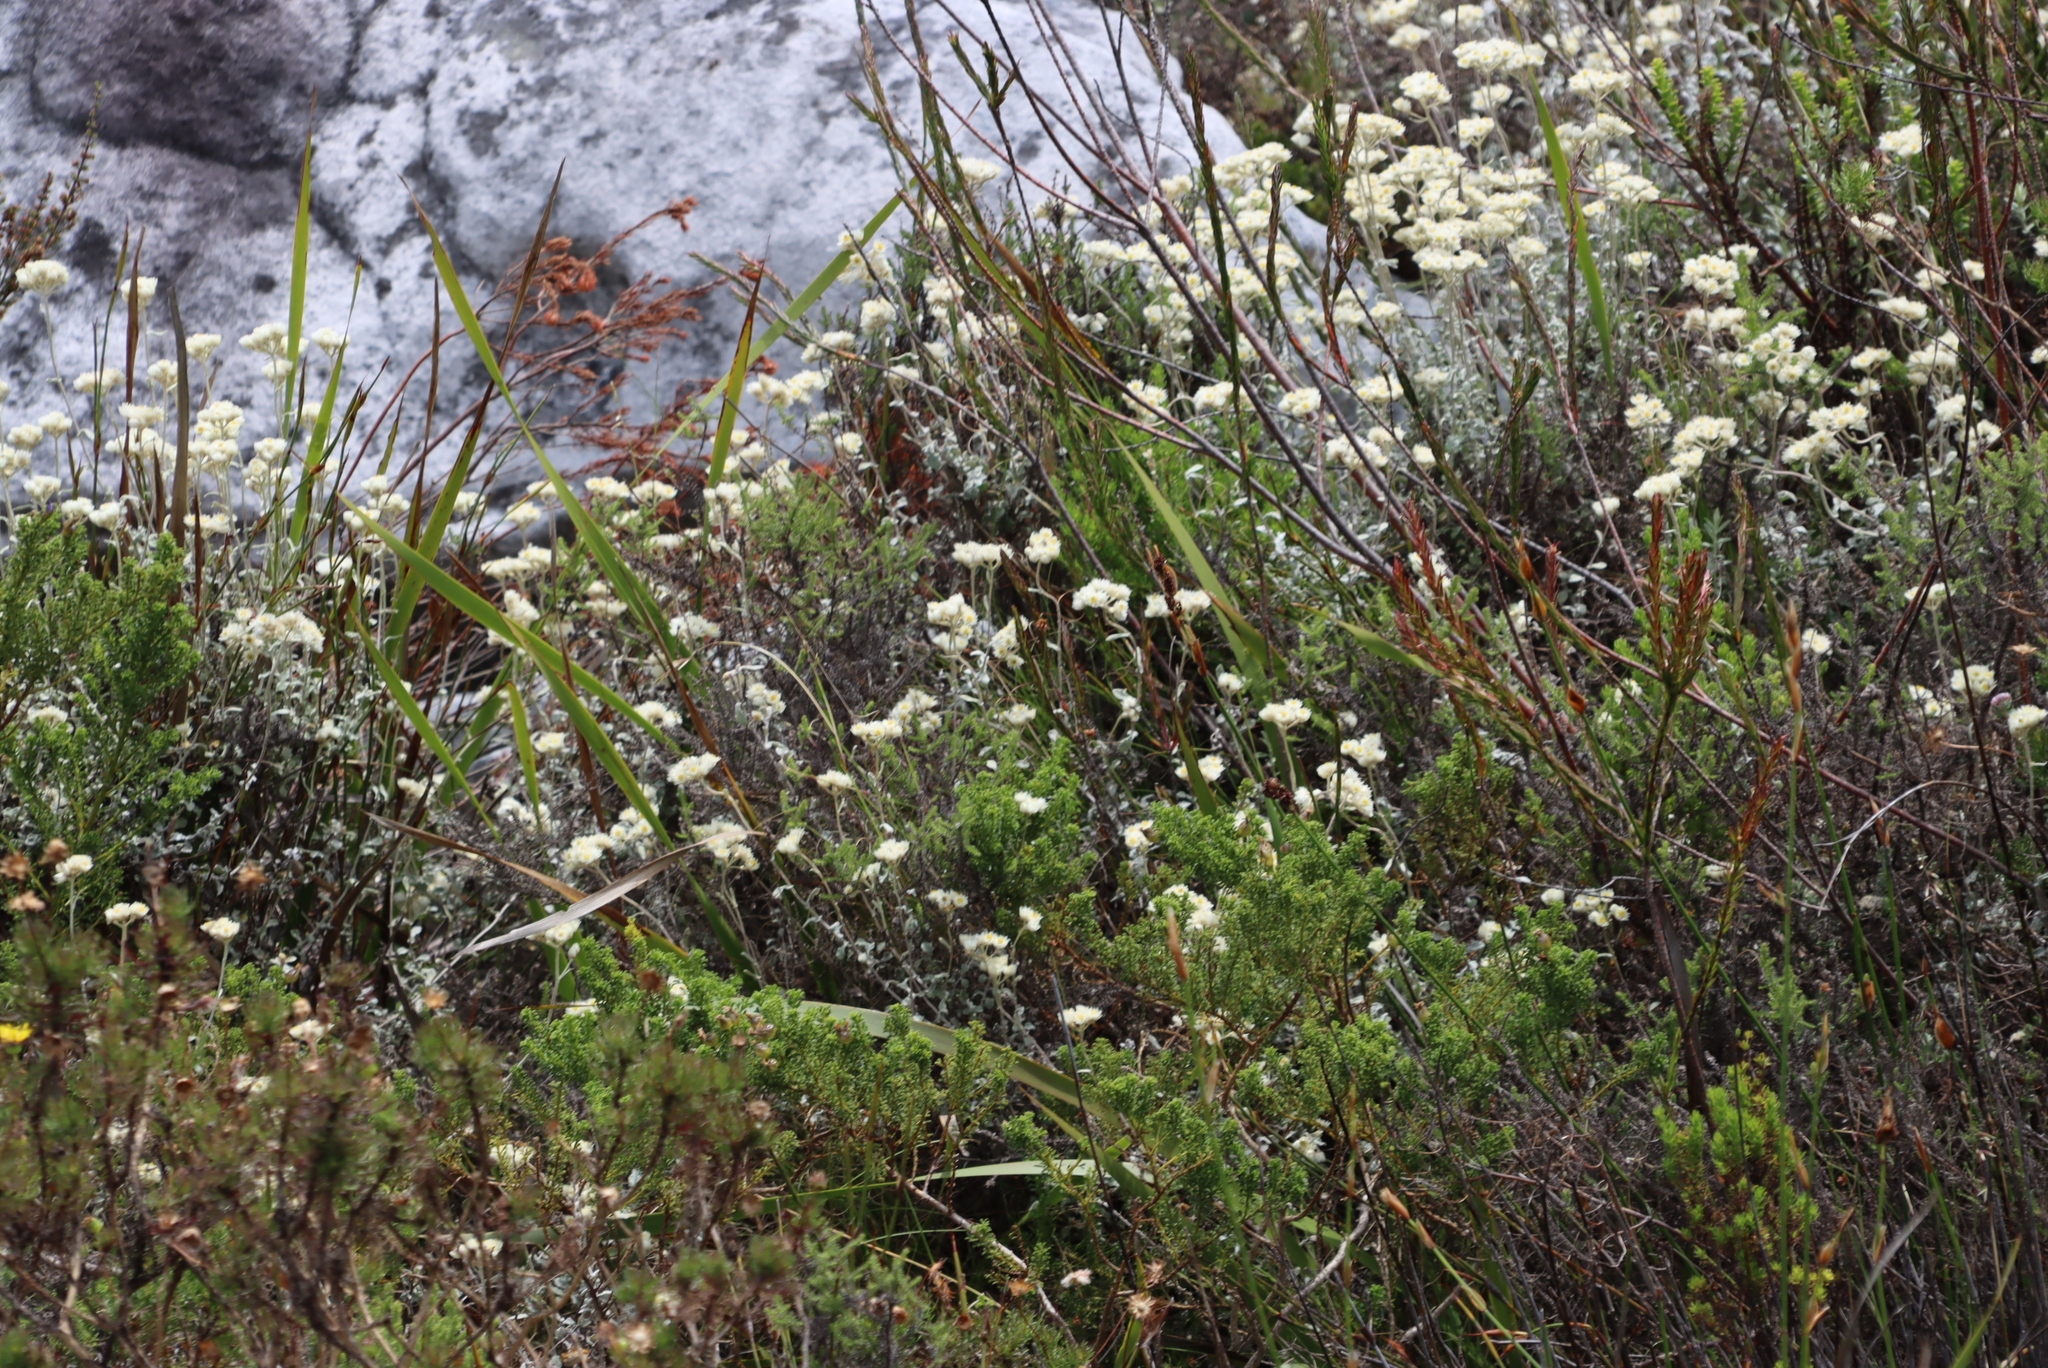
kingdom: Plantae
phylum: Tracheophyta
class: Magnoliopsida
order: Asterales
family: Asteraceae
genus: Helichrysum
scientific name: Helichrysum pandurifolium
